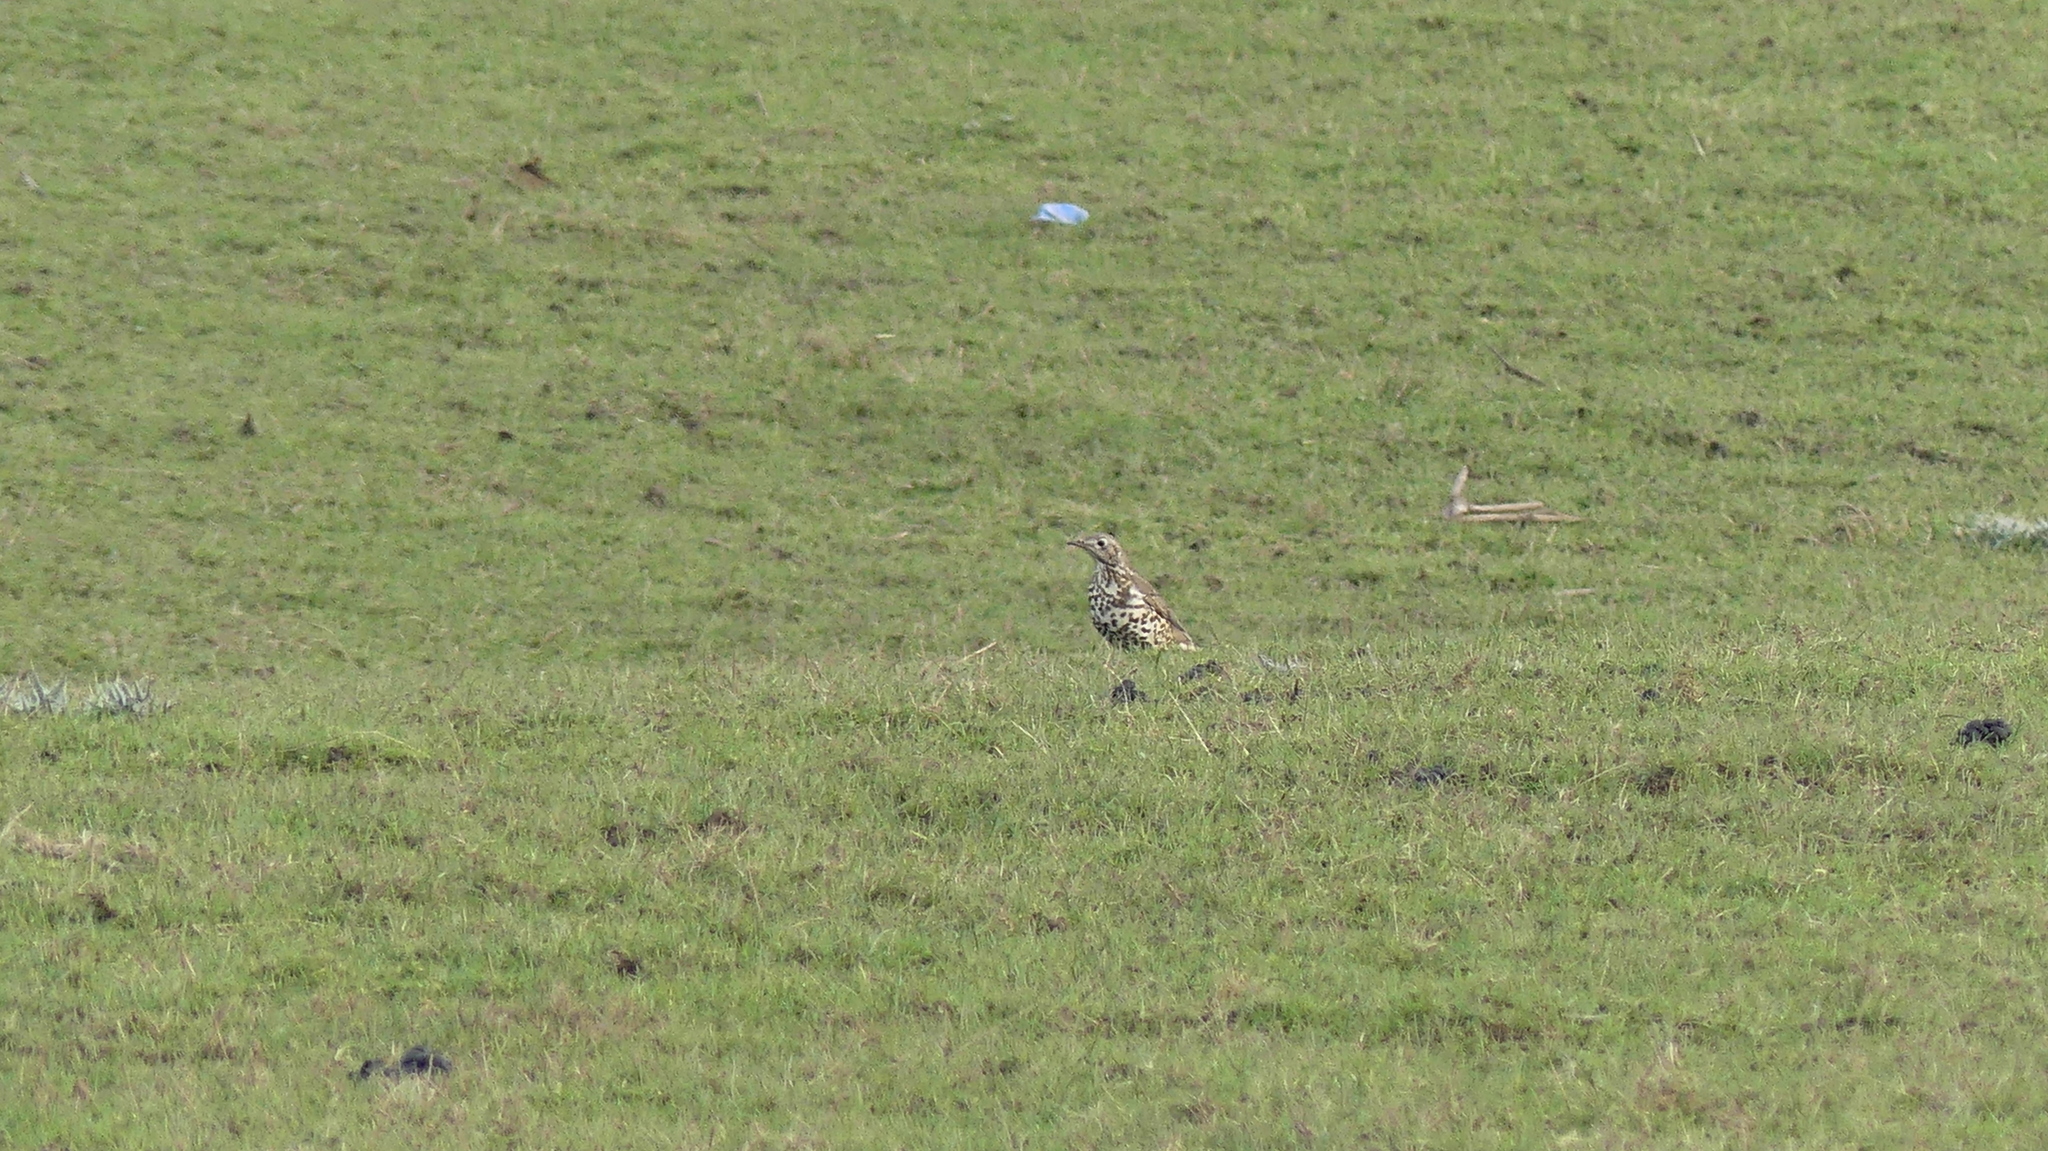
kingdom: Animalia
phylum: Chordata
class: Aves
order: Passeriformes
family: Turdidae
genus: Turdus
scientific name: Turdus viscivorus
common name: Mistle thrush
